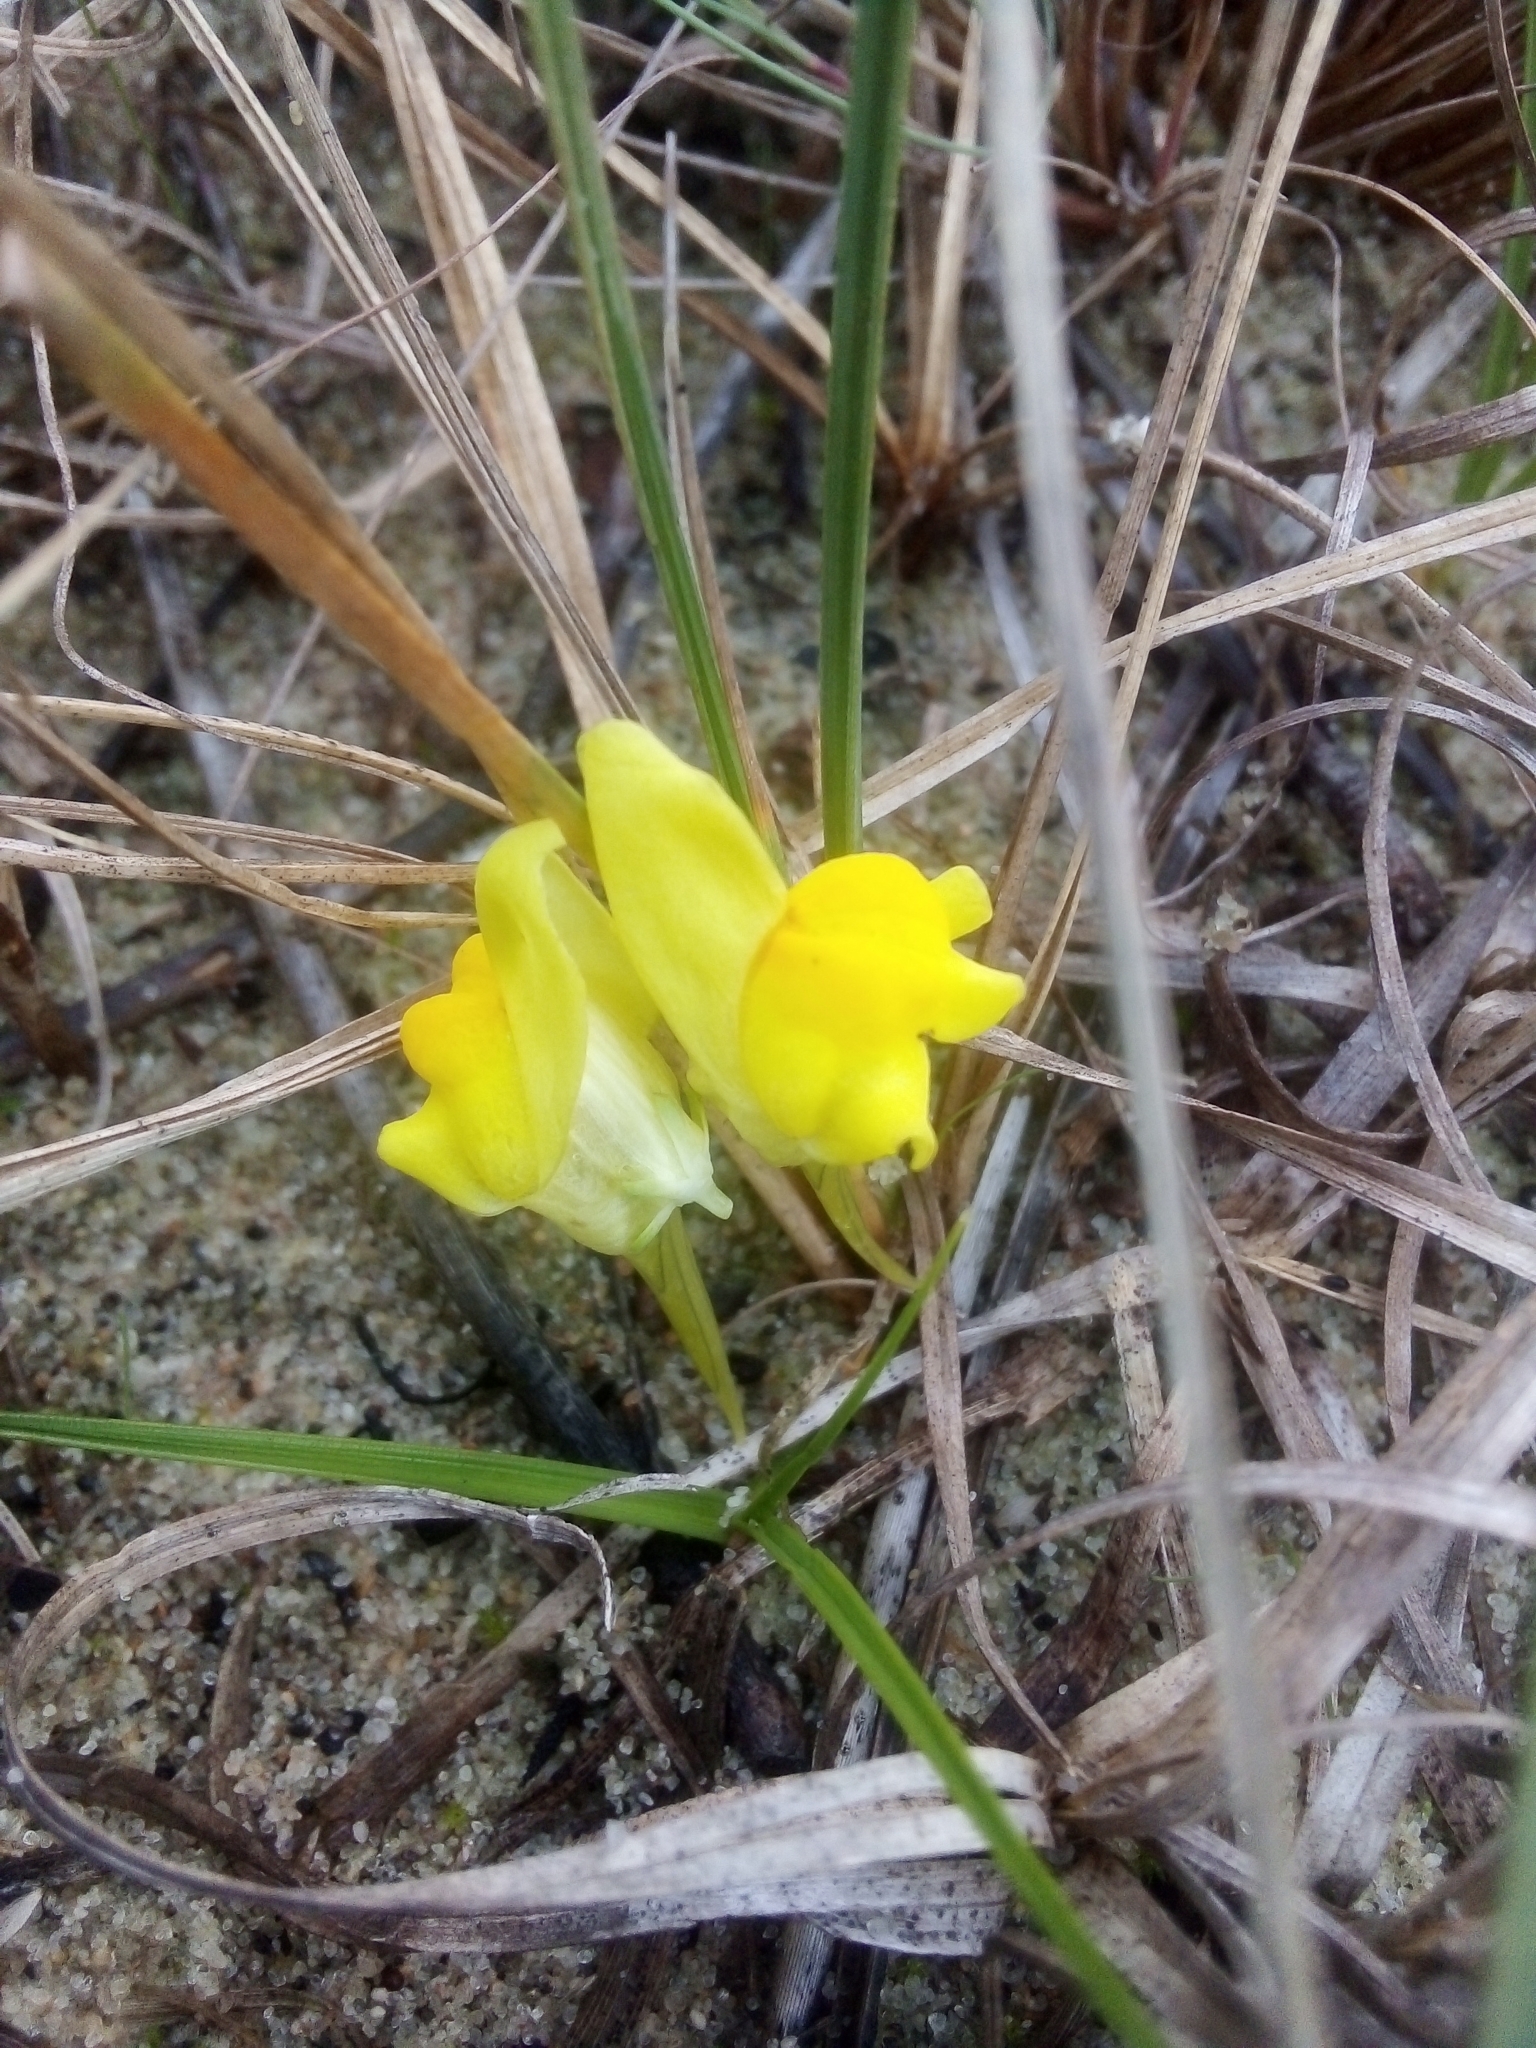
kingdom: Plantae
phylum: Tracheophyta
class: Magnoliopsida
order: Lamiales
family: Plantaginaceae
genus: Linaria
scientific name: Linaria polygalifolia
